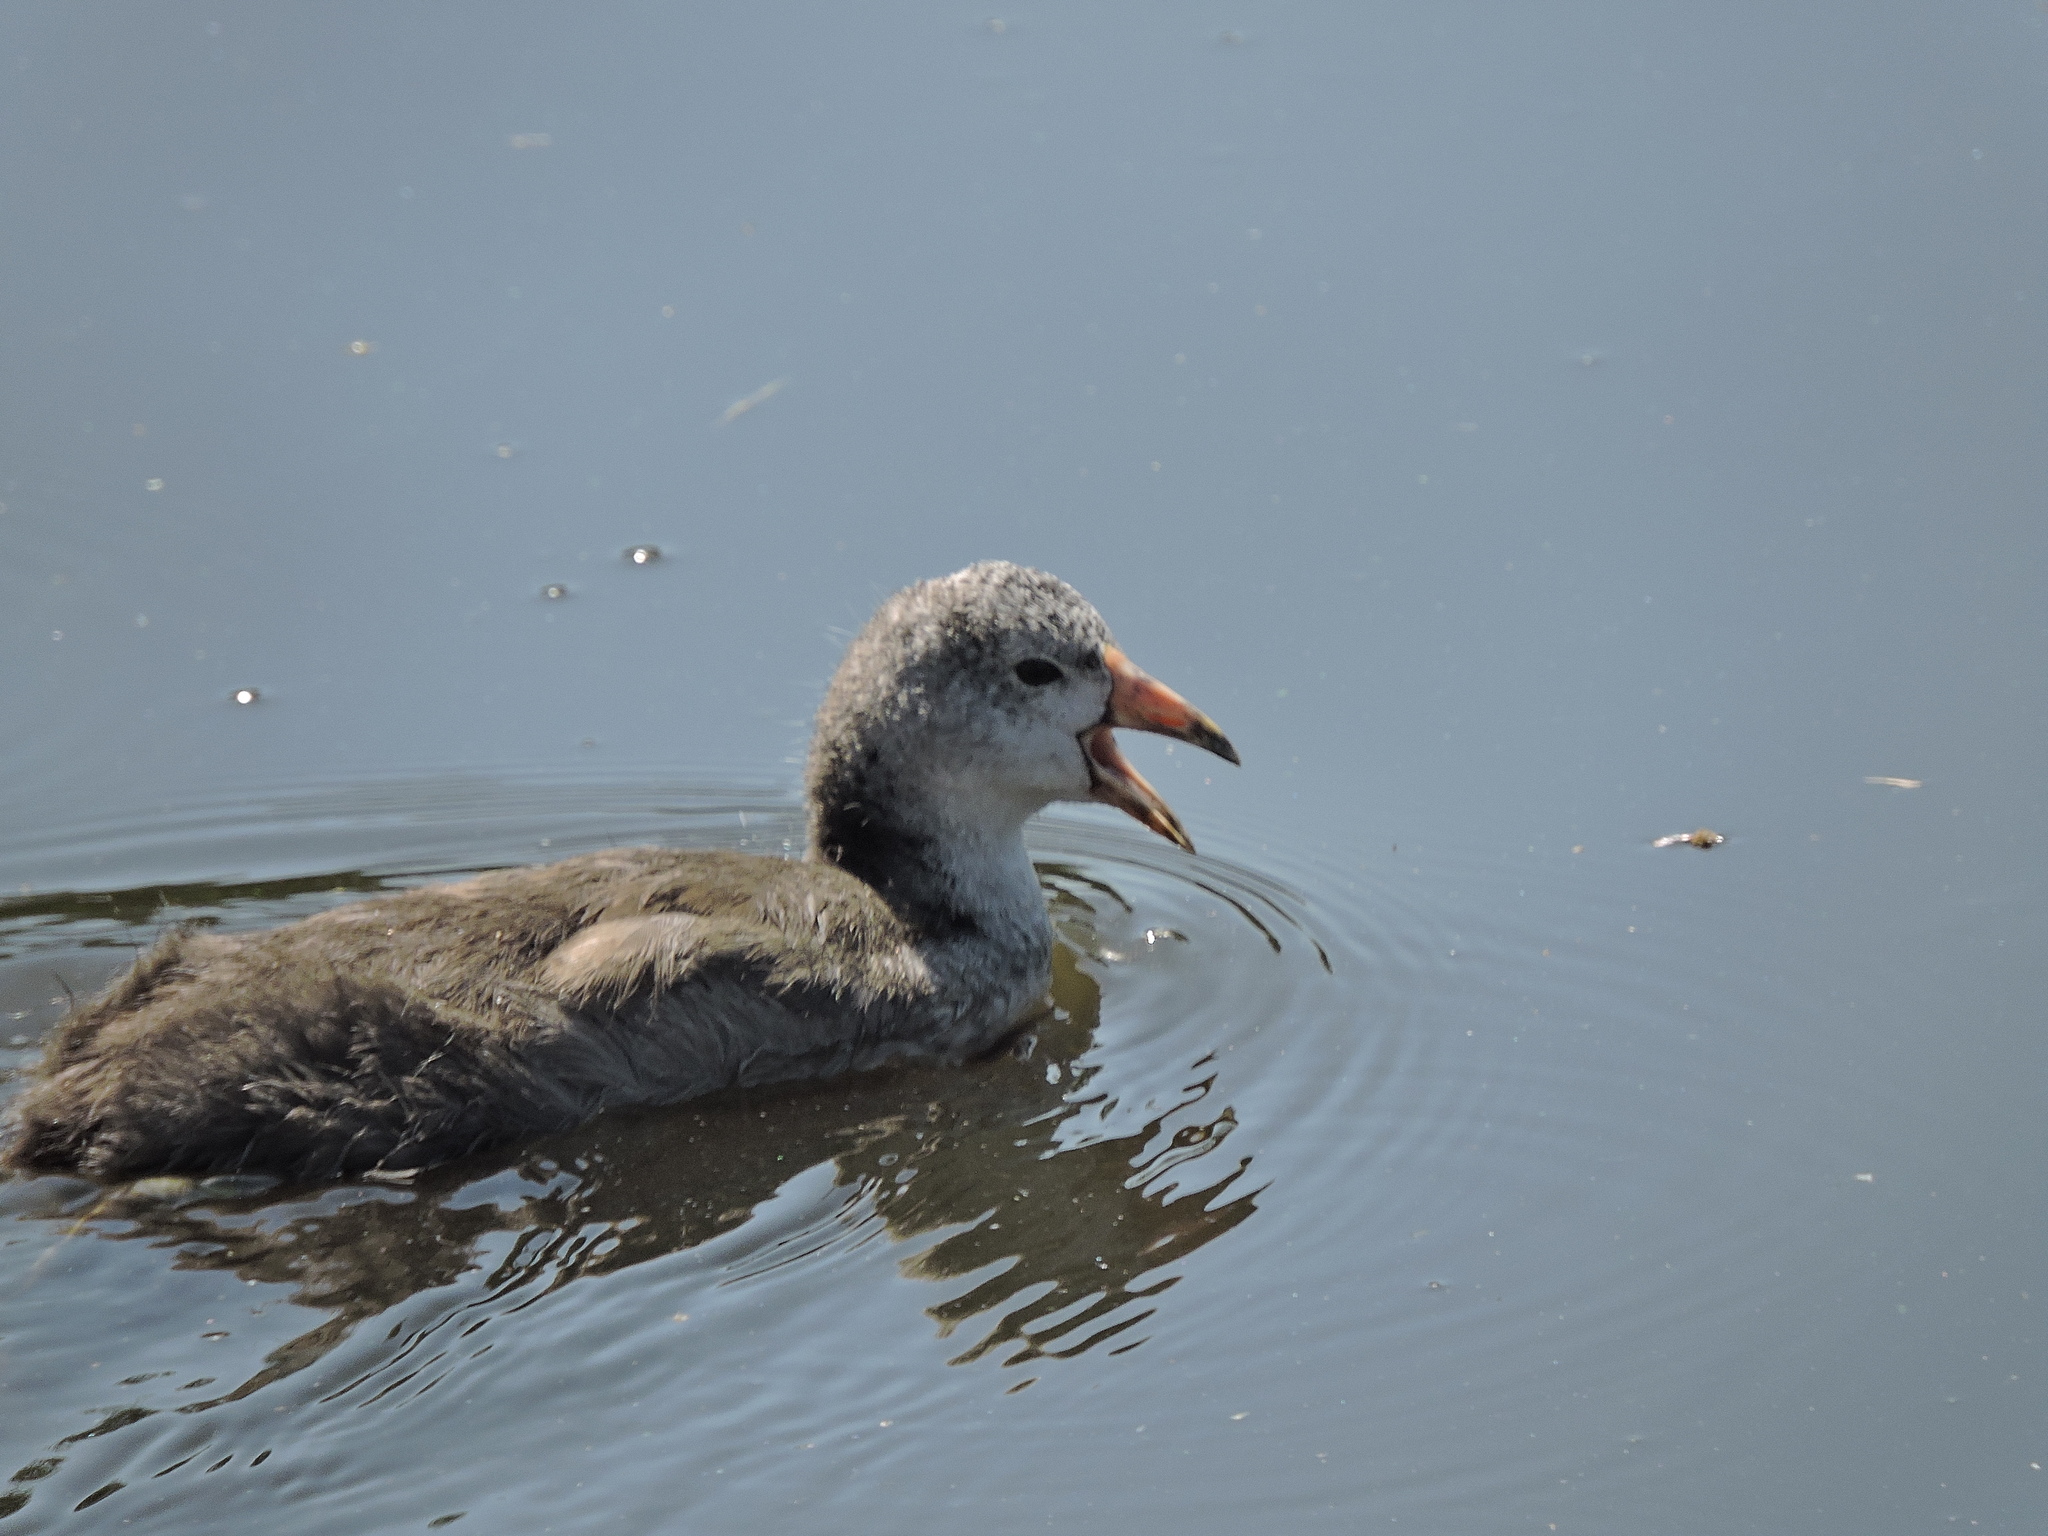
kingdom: Animalia
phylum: Chordata
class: Aves
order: Gruiformes
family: Rallidae
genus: Fulica
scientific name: Fulica americana
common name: American coot
